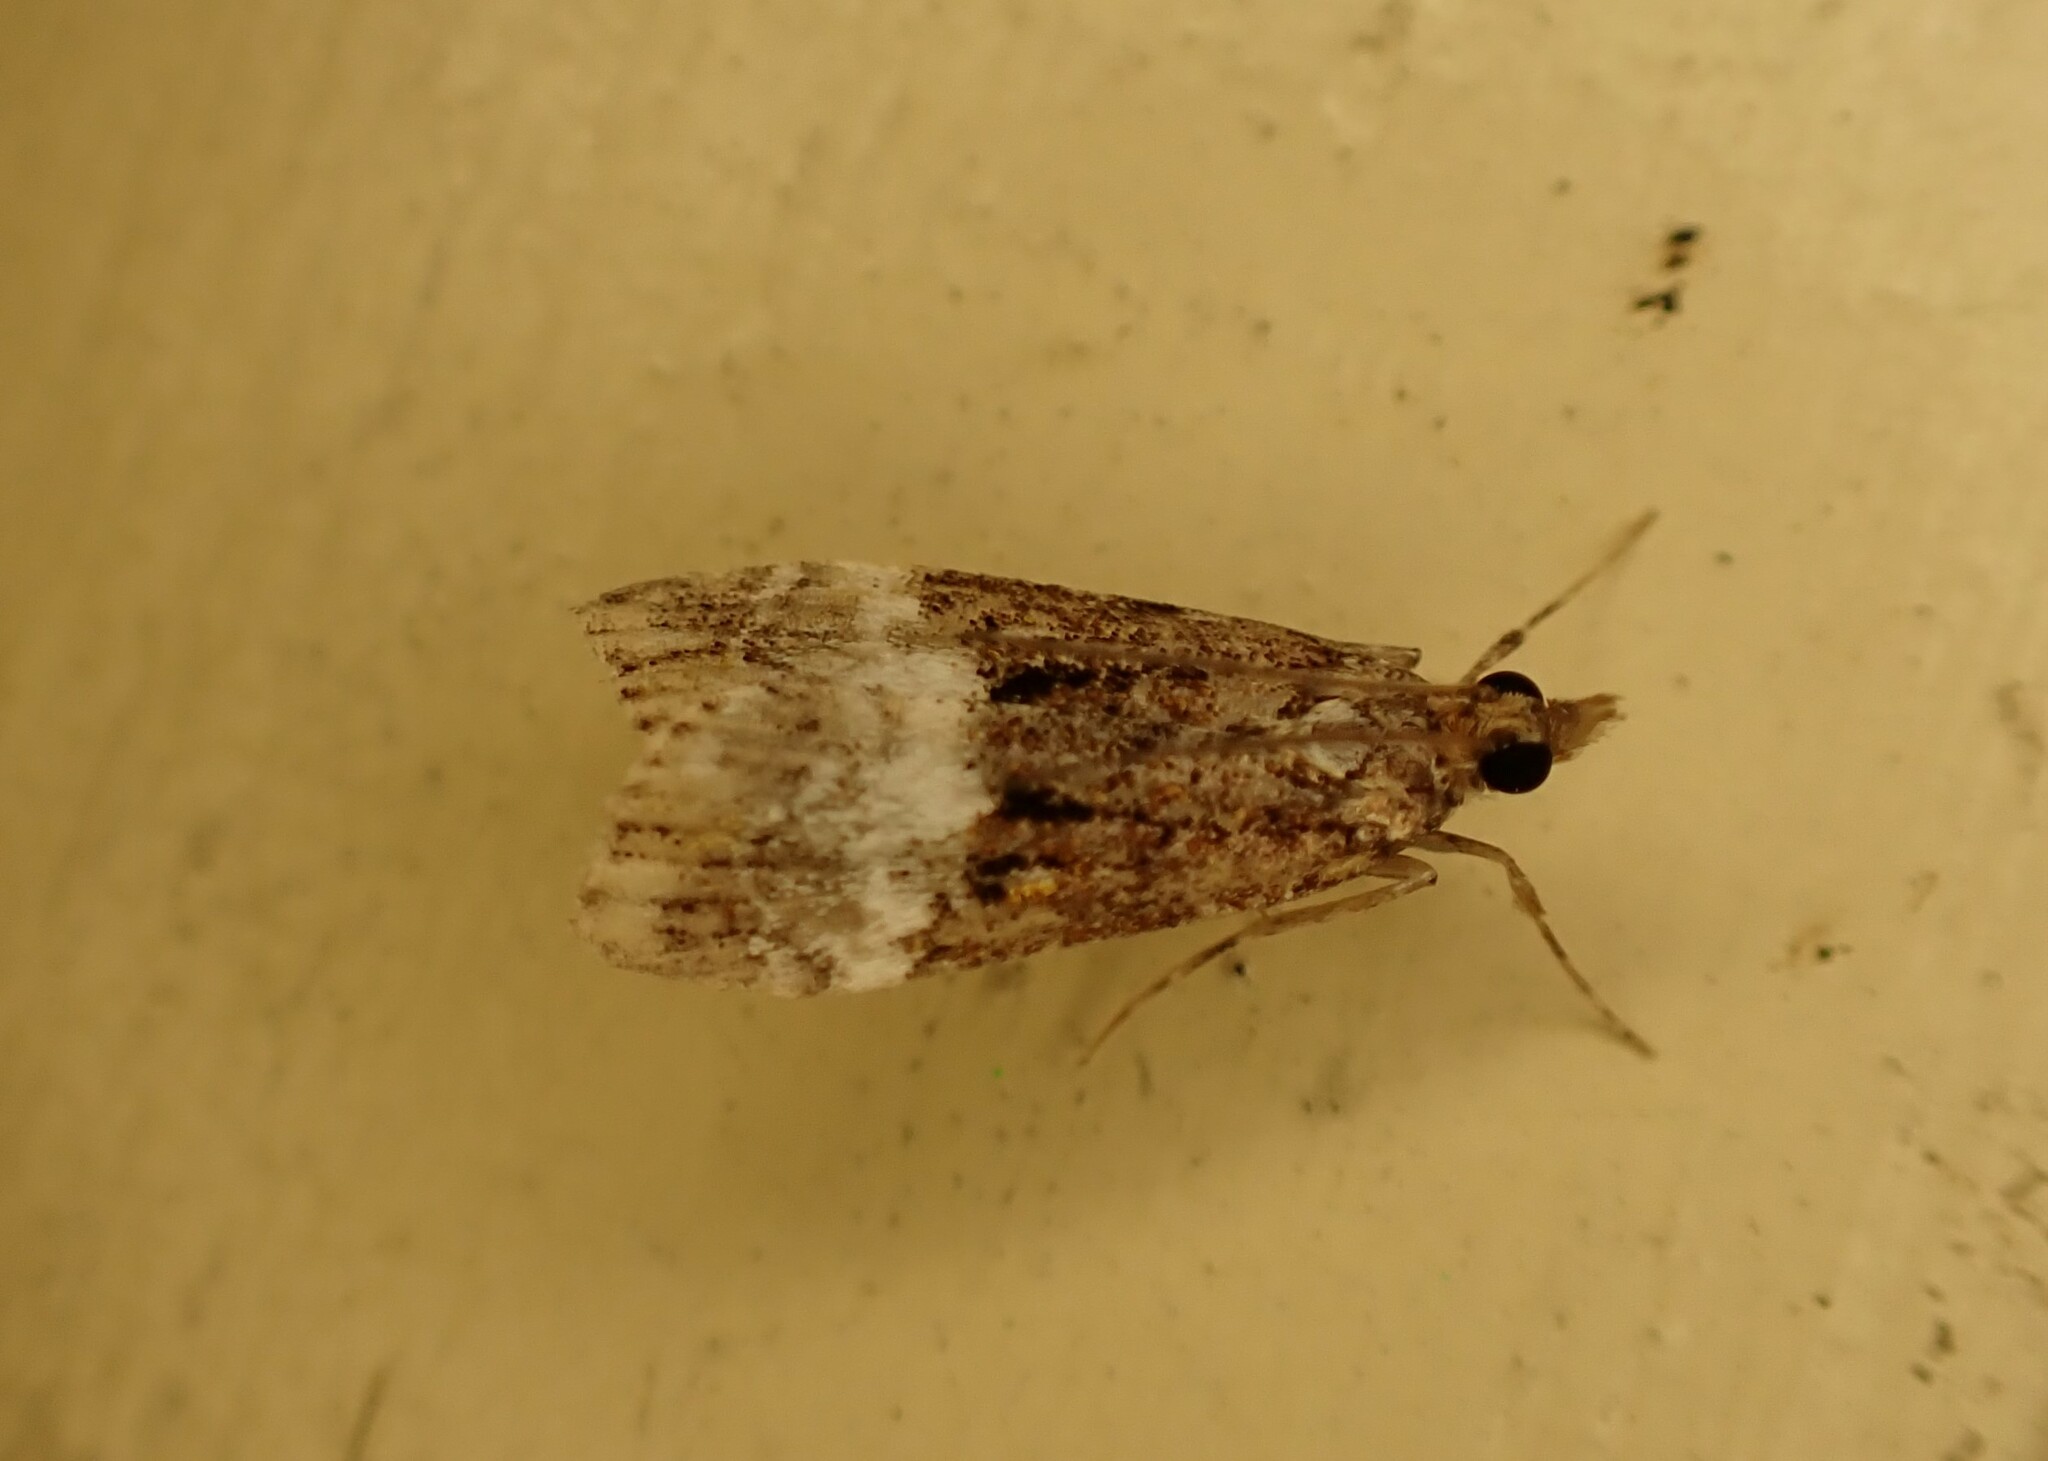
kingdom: Animalia
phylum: Arthropoda
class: Insecta
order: Lepidoptera
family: Crambidae
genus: Scoparia
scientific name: Scoparia minusculalis
